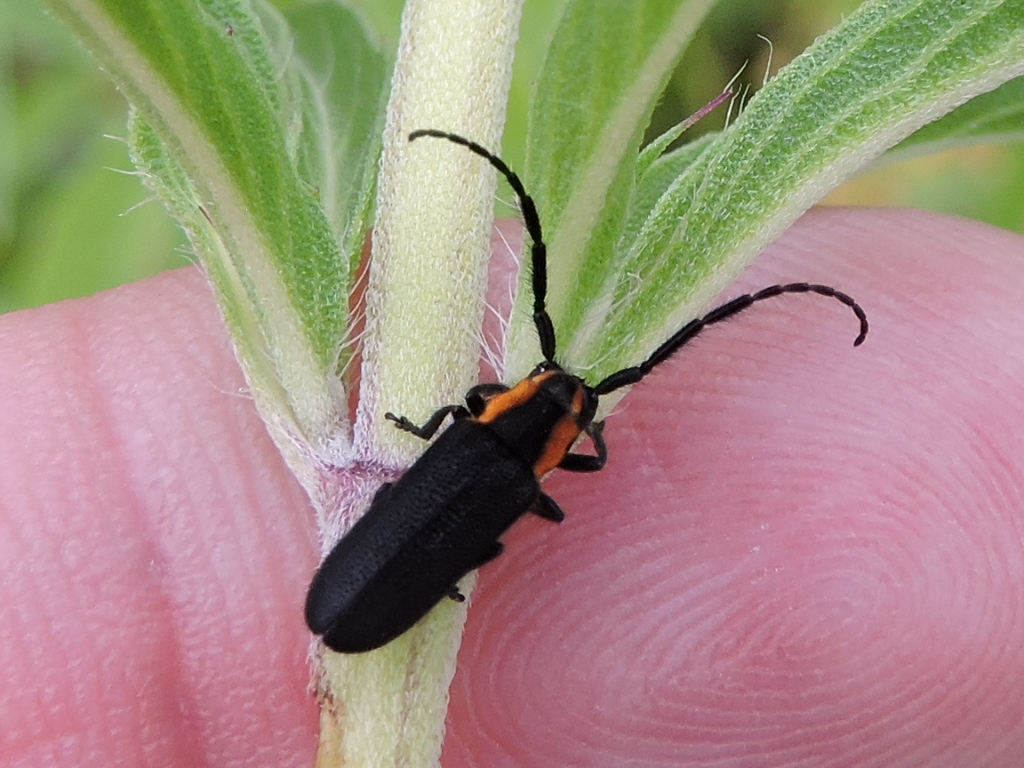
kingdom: Animalia
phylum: Arthropoda
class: Insecta
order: Coleoptera
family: Cerambycidae
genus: Hemierana
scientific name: Hemierana marginata
